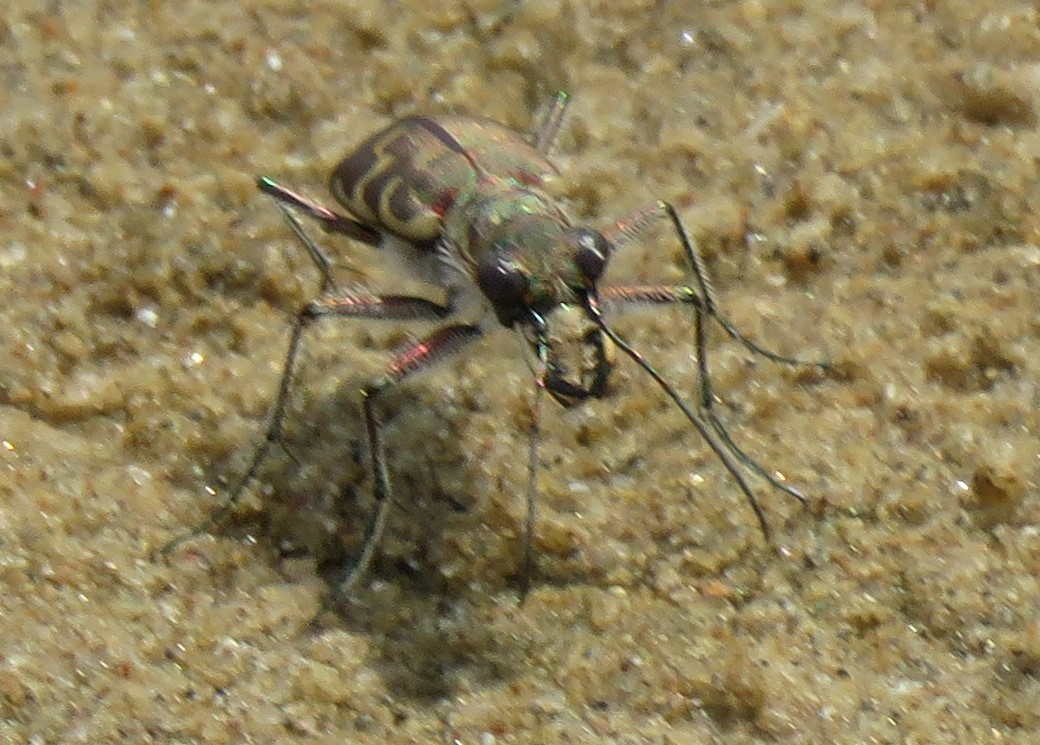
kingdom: Animalia
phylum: Arthropoda
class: Insecta
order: Coleoptera
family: Carabidae
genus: Cicindela
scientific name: Cicindela repanda
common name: Bronzed tiger beetle
